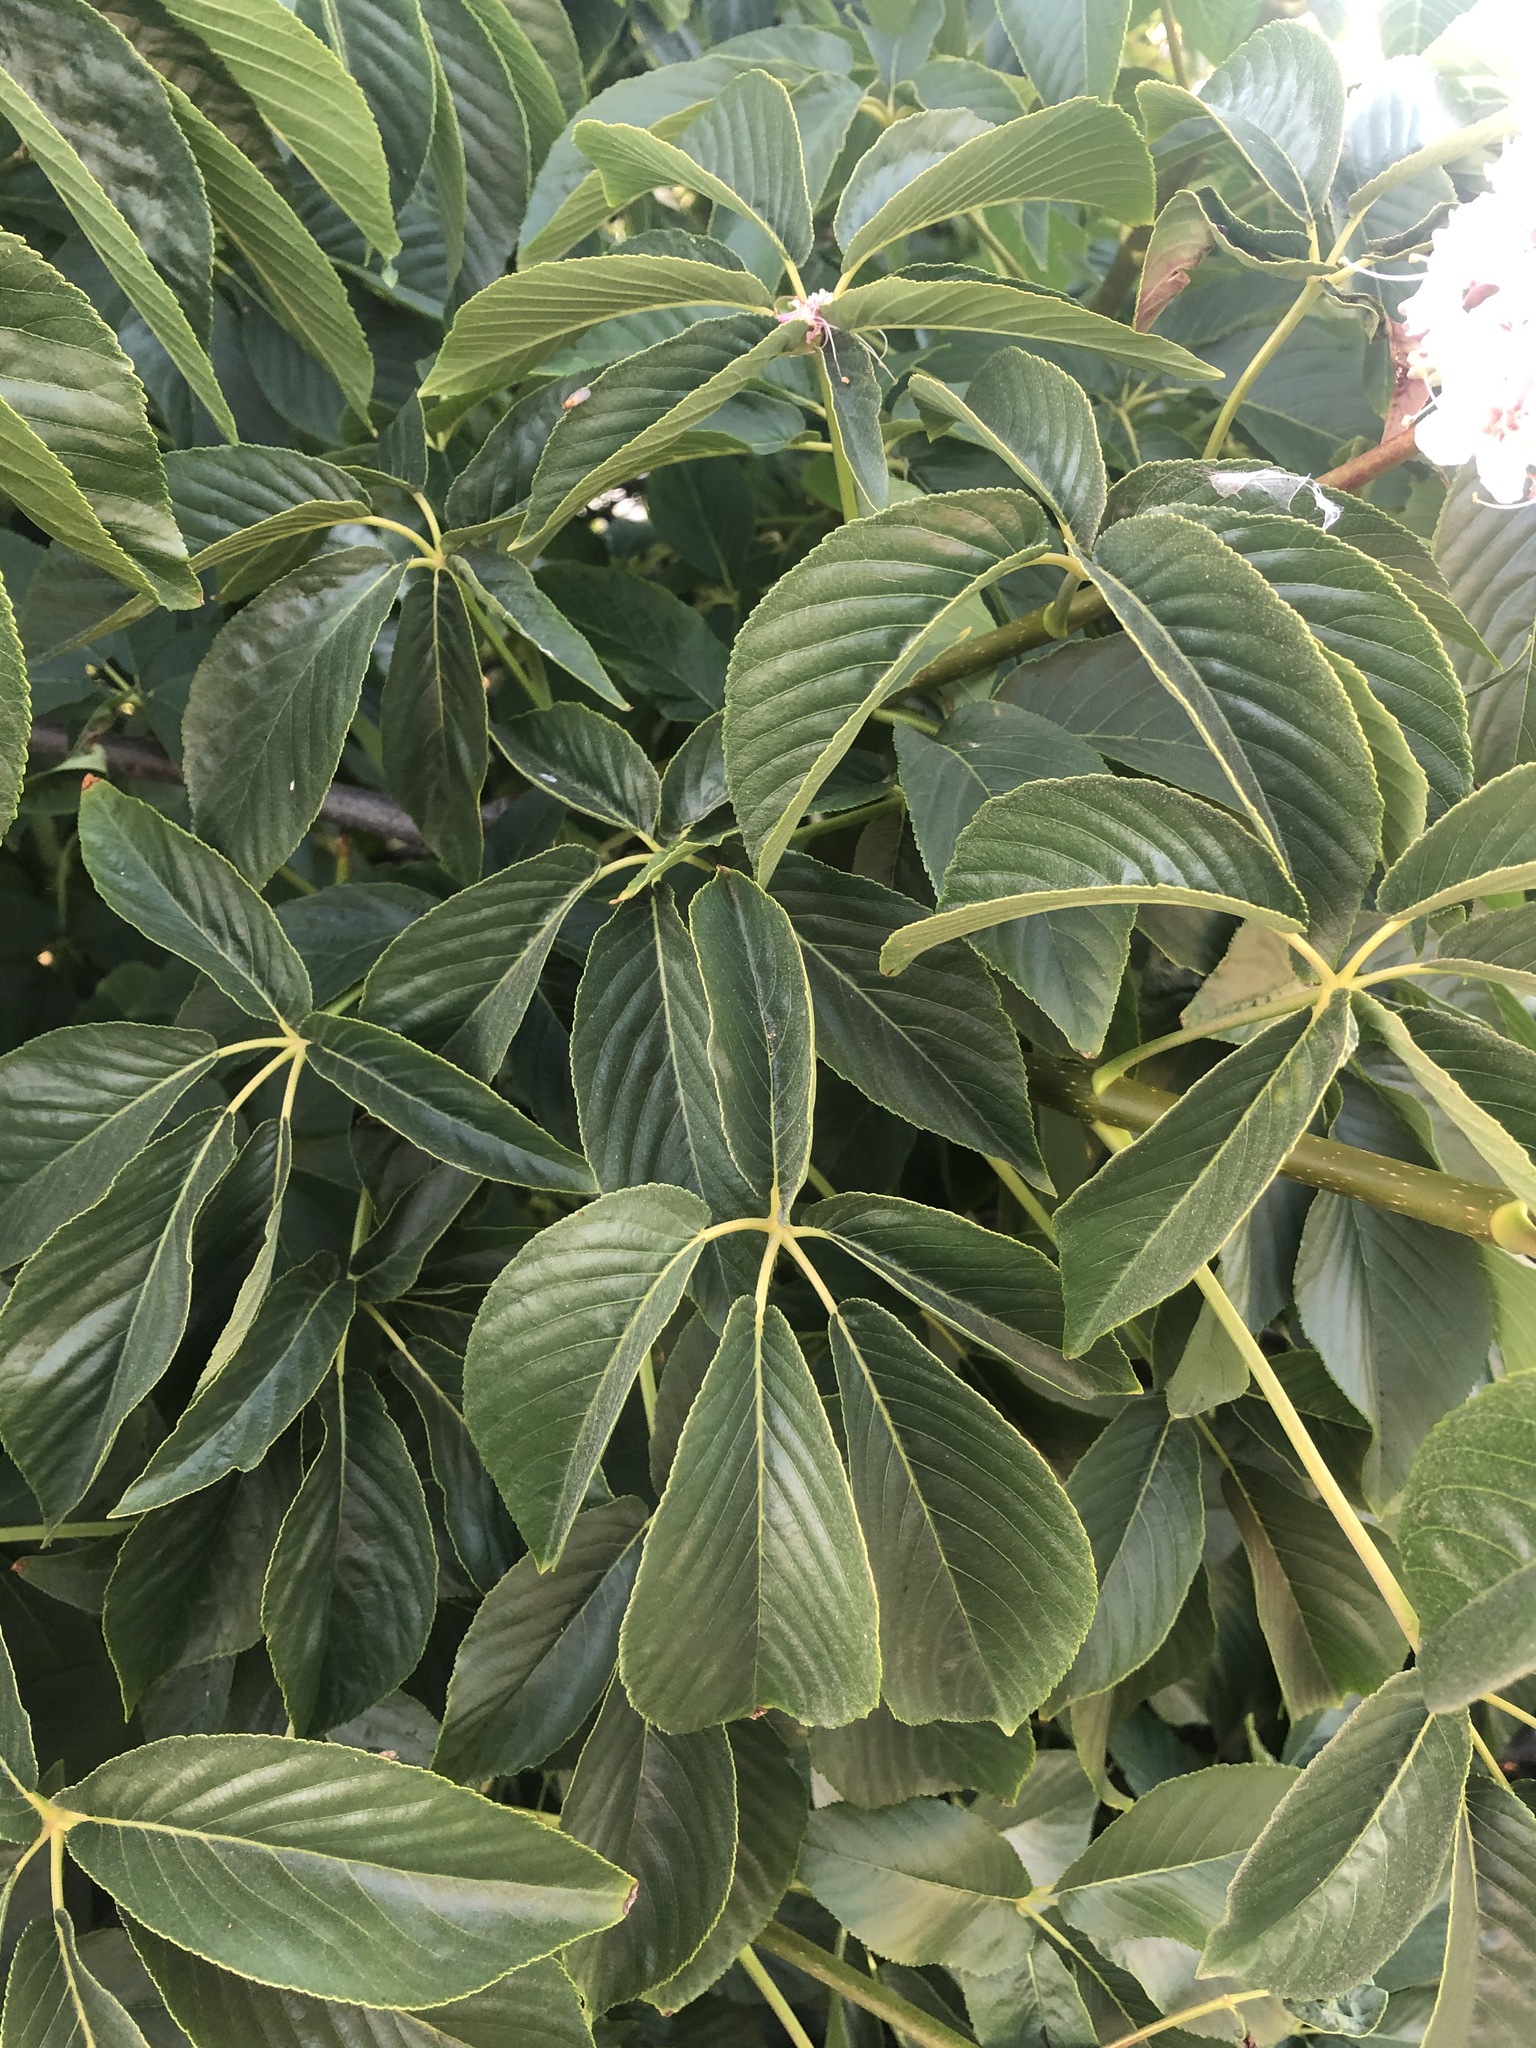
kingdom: Plantae
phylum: Tracheophyta
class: Magnoliopsida
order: Sapindales
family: Sapindaceae
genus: Aesculus
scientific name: Aesculus californica
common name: California buckeye
